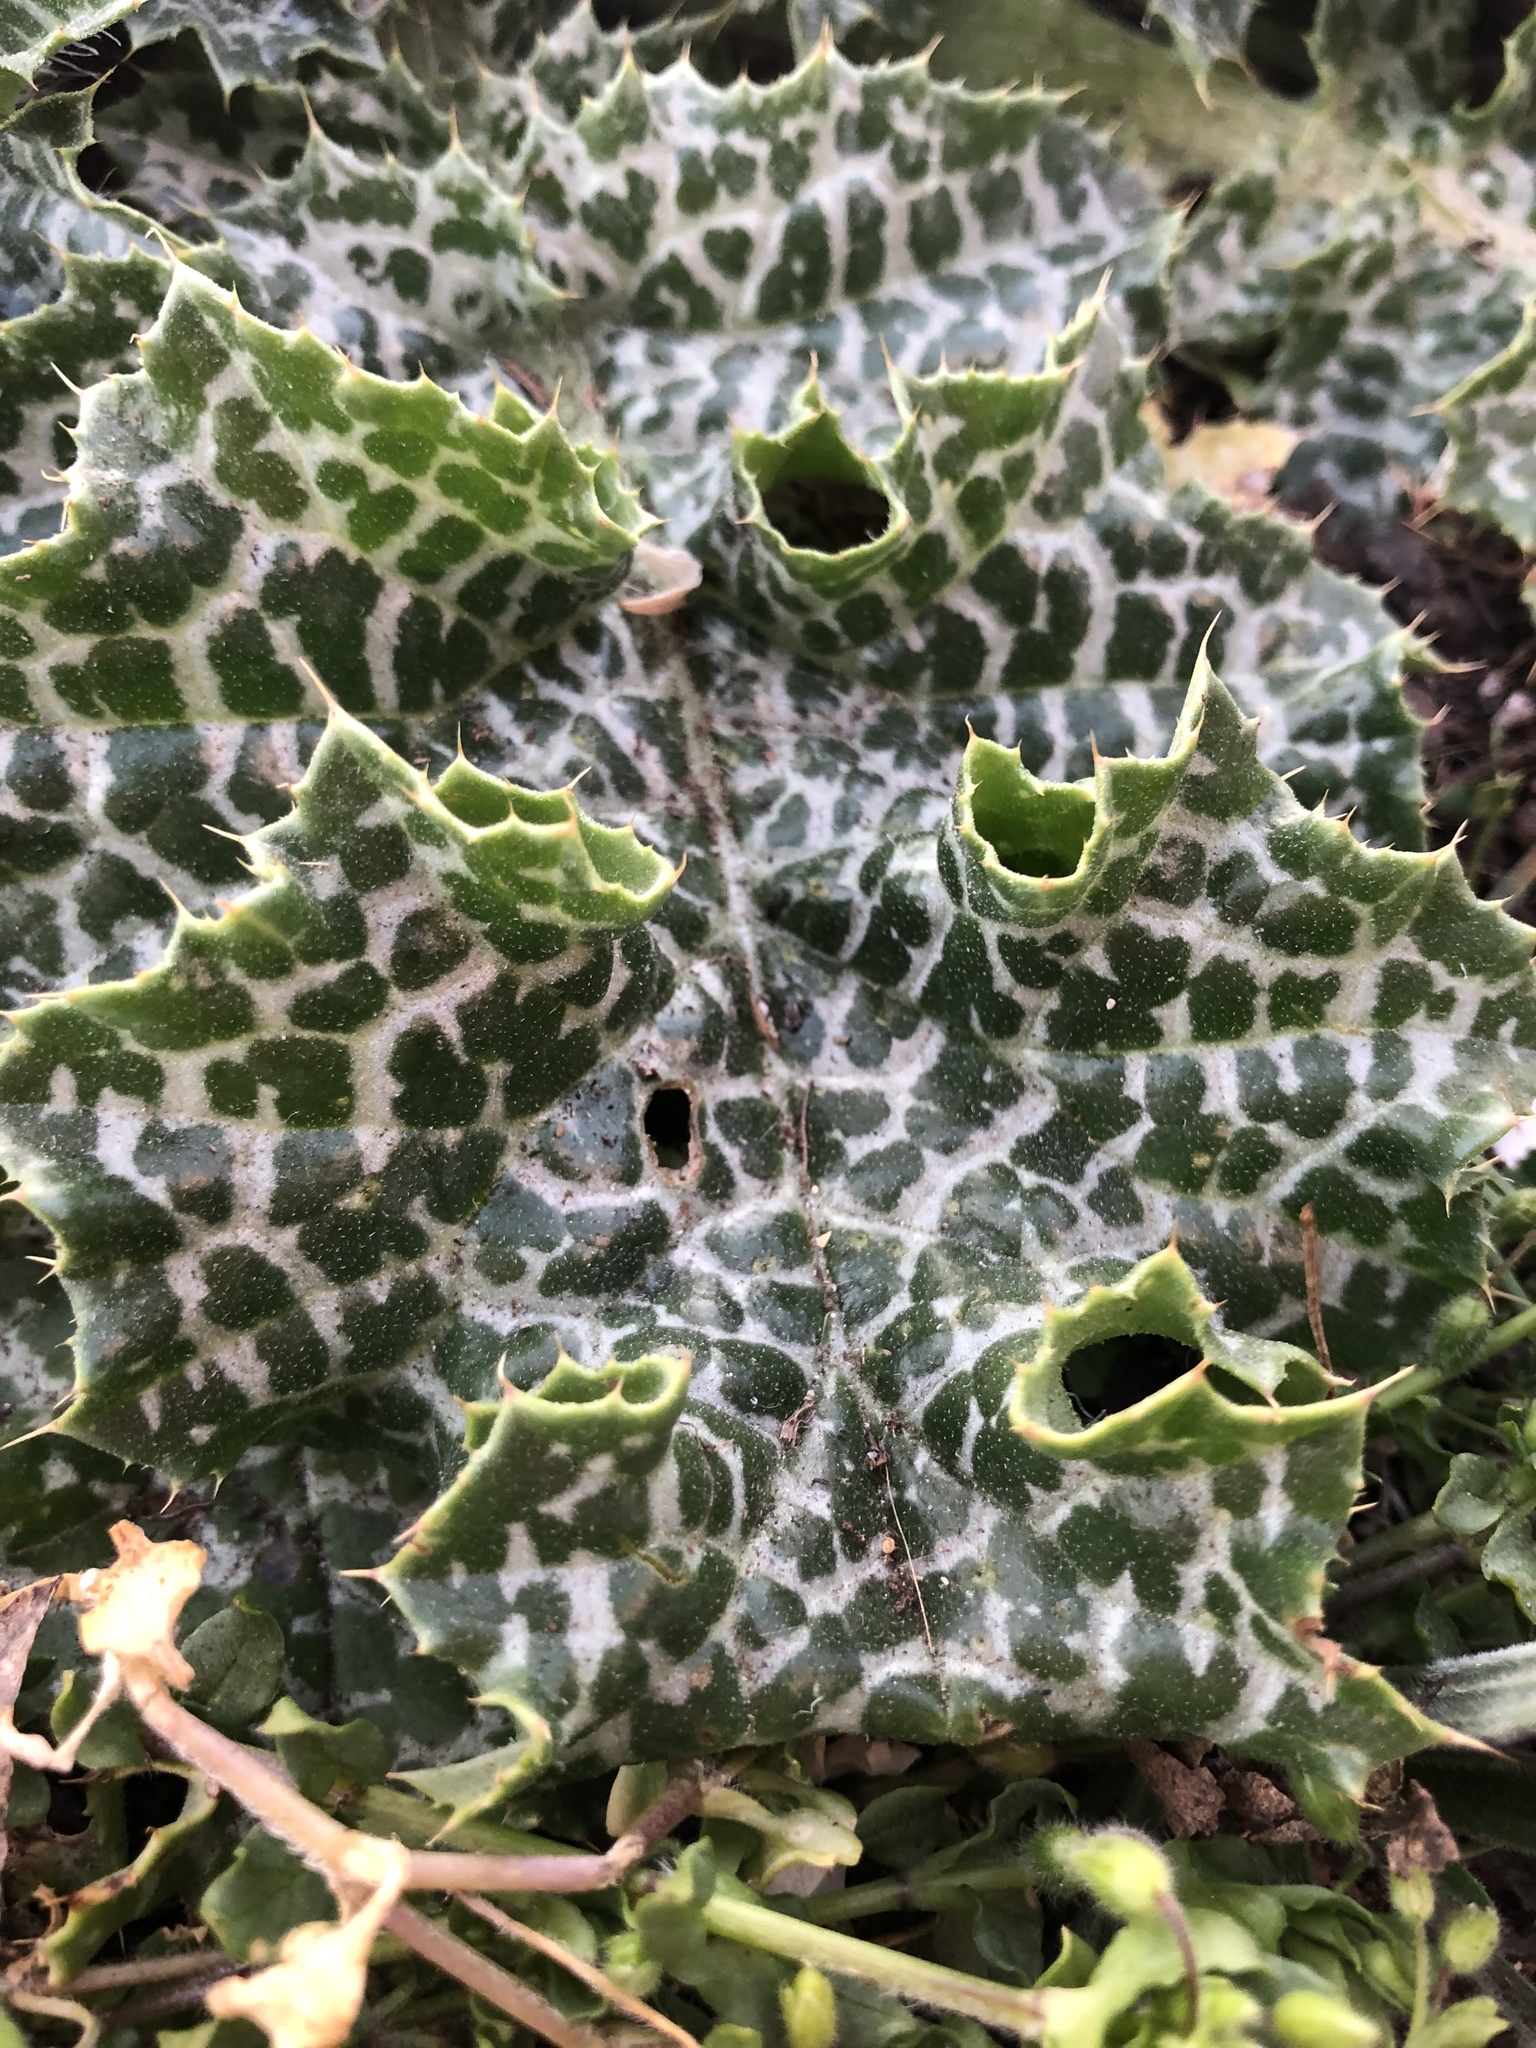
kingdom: Plantae
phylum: Tracheophyta
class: Magnoliopsida
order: Asterales
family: Asteraceae
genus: Silybum
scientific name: Silybum marianum
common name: Milk thistle
